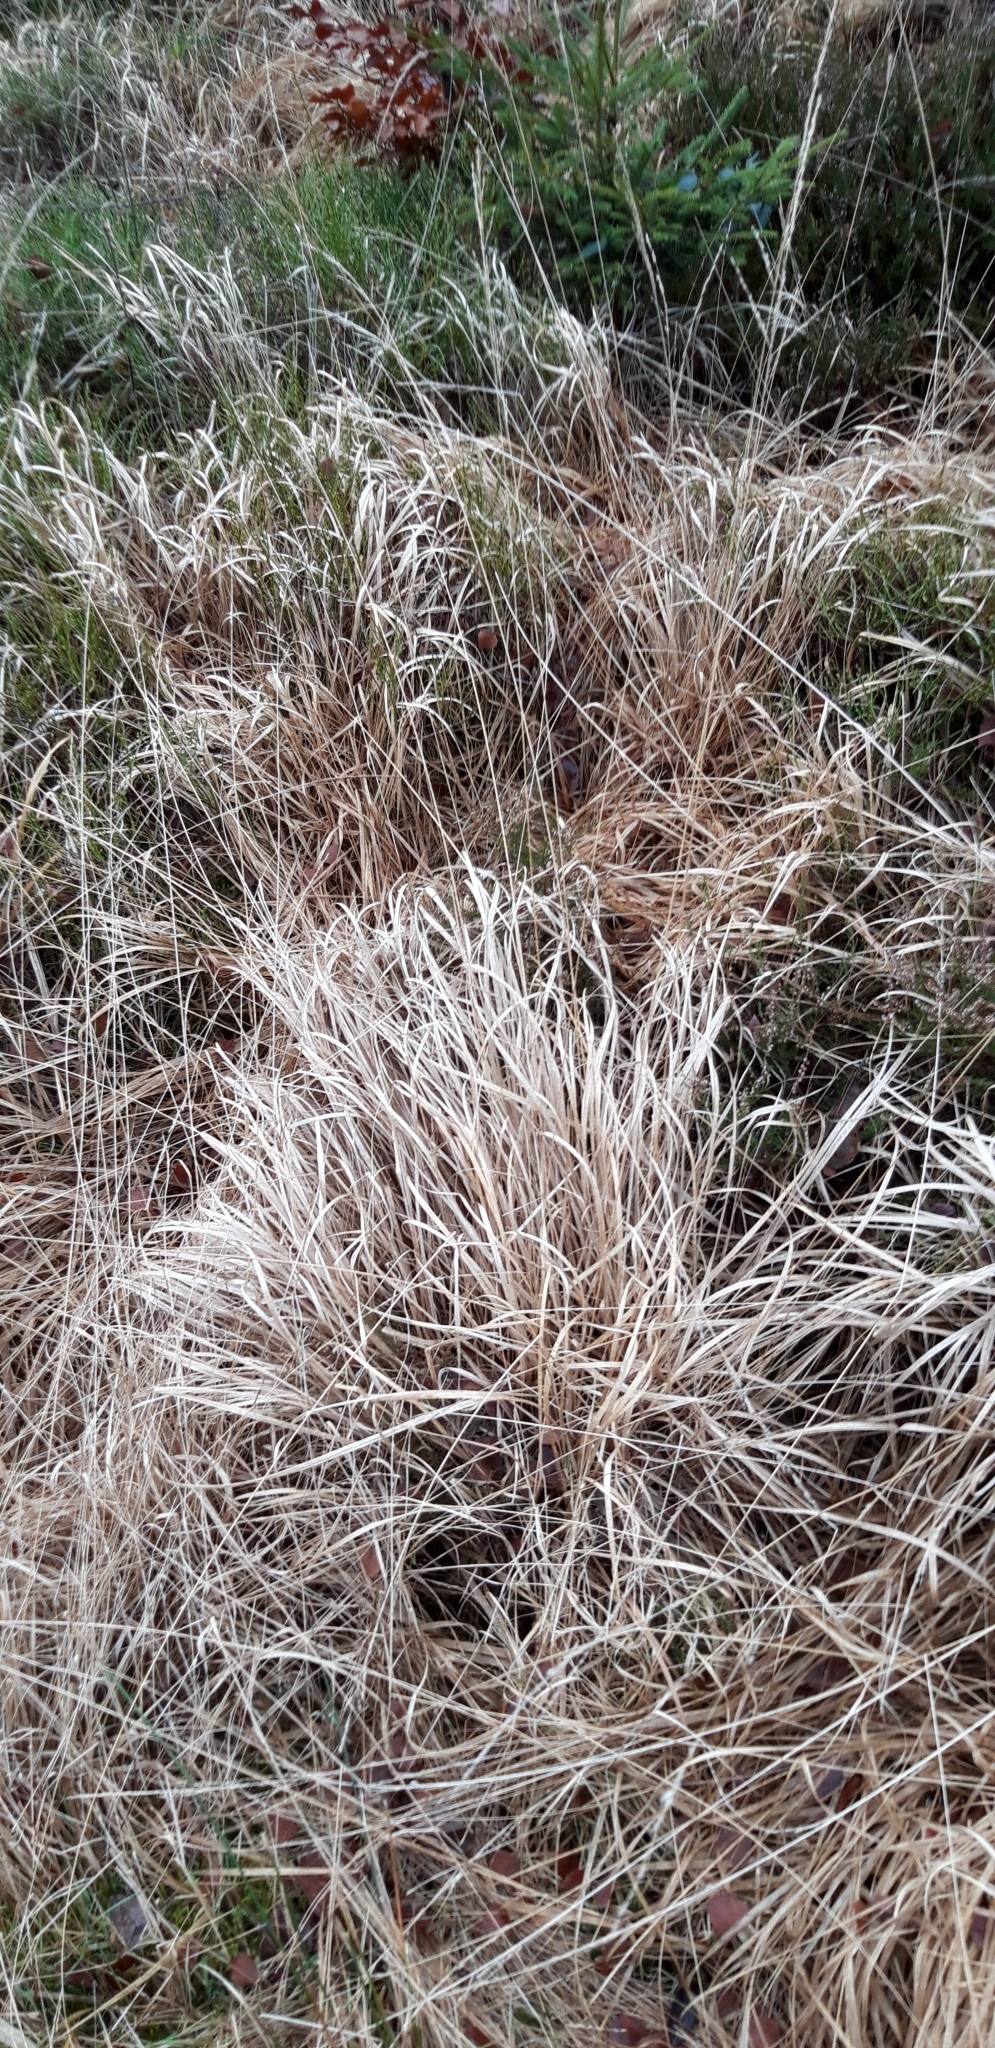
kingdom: Plantae
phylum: Tracheophyta
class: Liliopsida
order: Poales
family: Poaceae
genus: Molinia
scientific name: Molinia caerulea
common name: Purple moor-grass
